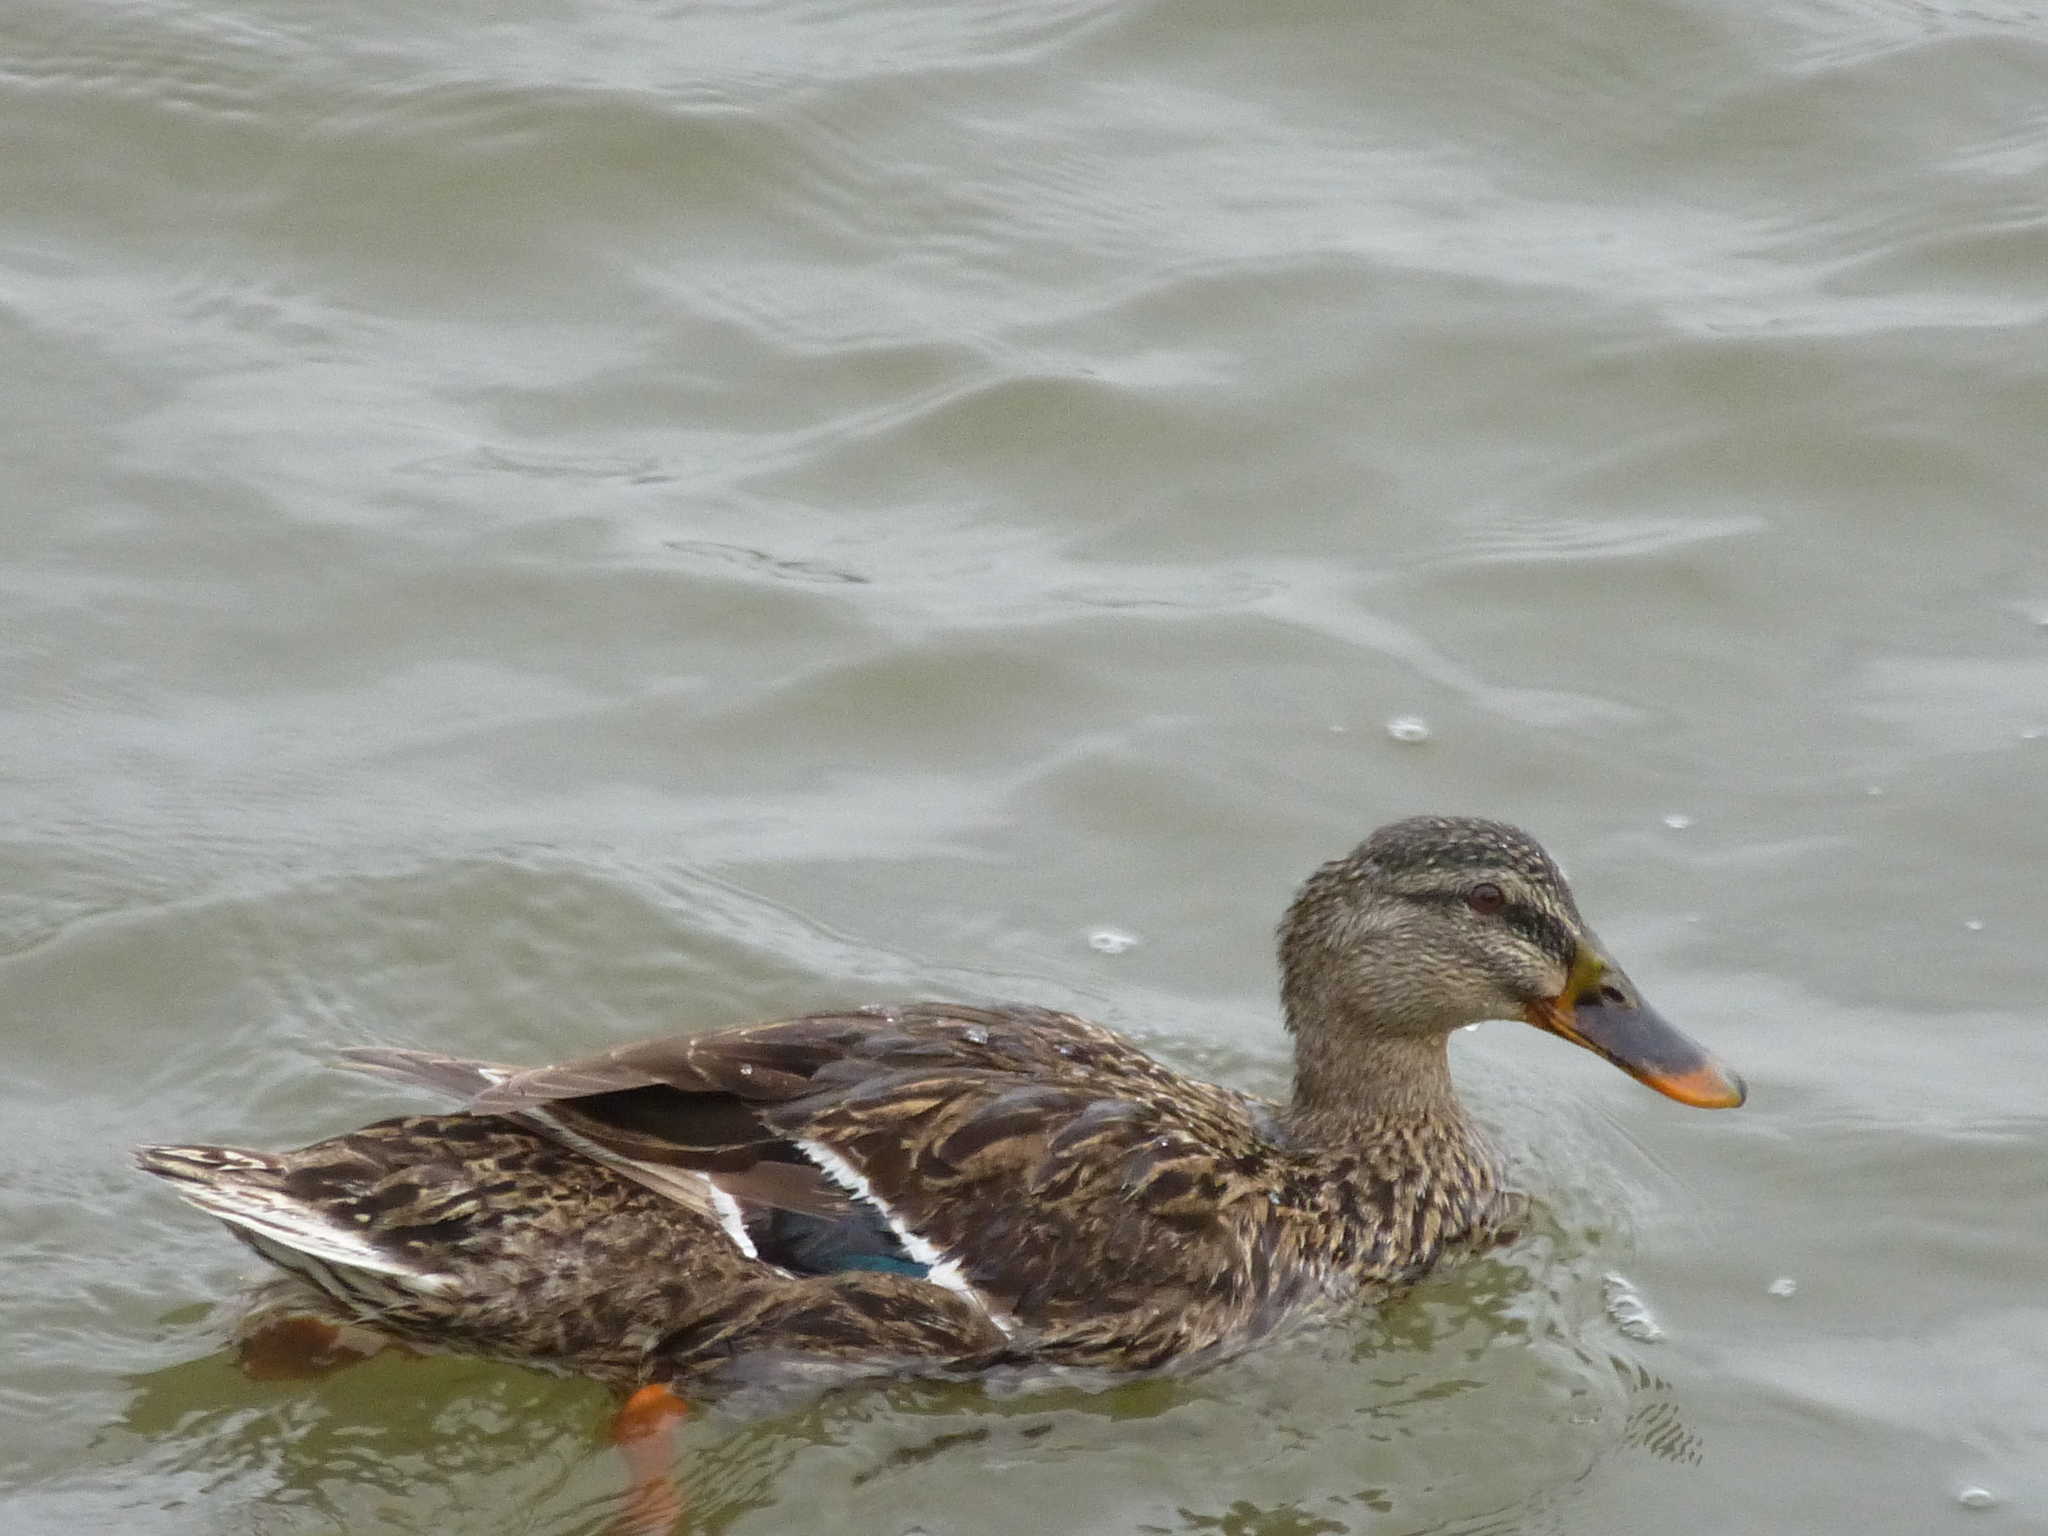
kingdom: Animalia
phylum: Chordata
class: Aves
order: Anseriformes
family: Anatidae
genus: Anas
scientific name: Anas platyrhynchos
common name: Mallard
